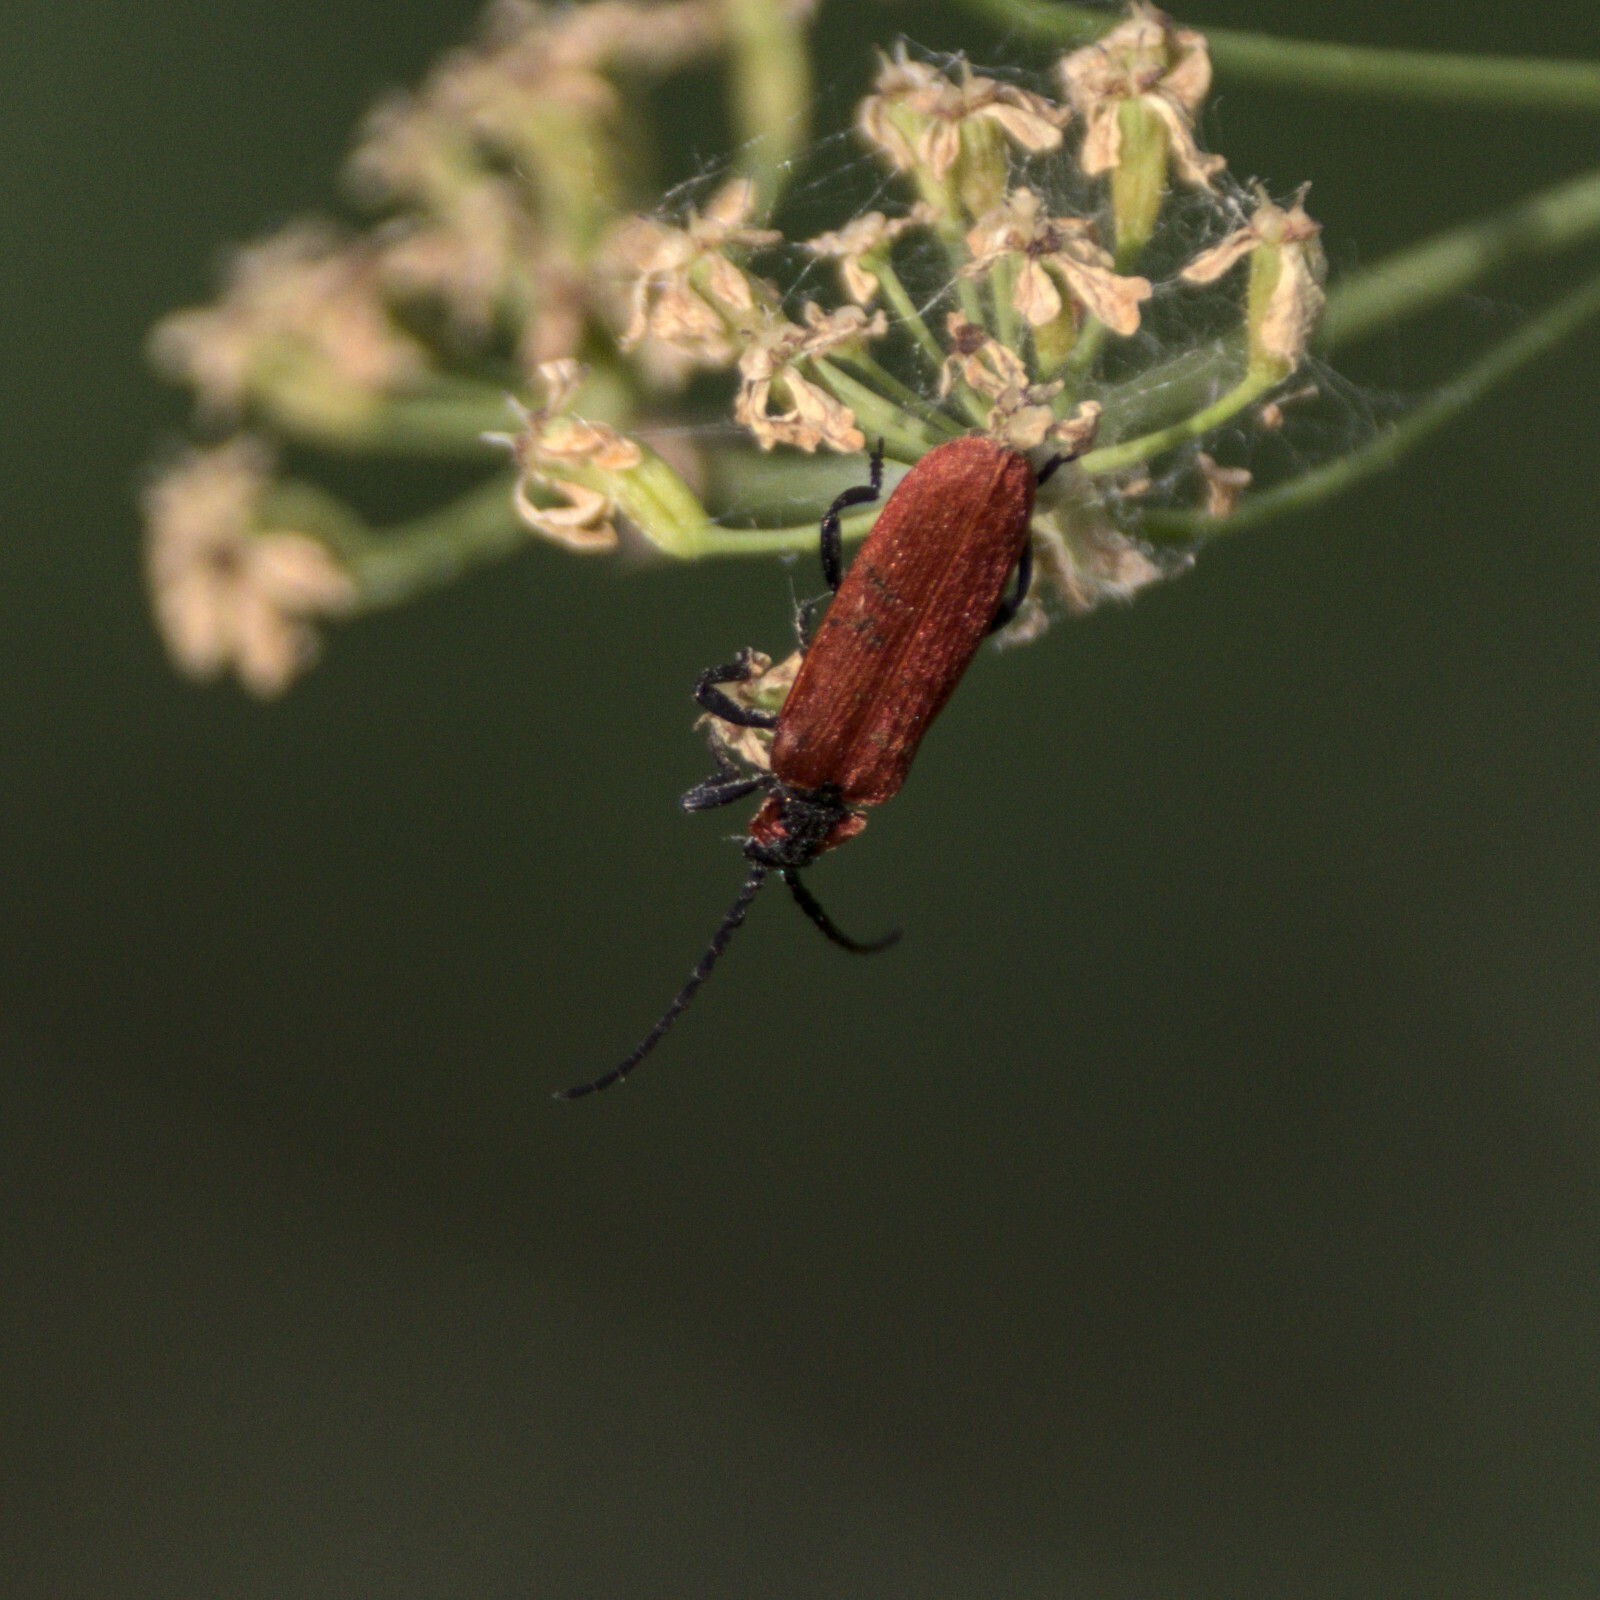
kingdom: Animalia
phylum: Arthropoda
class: Insecta
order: Coleoptera
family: Lycidae
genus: Lygistopterus
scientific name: Lygistopterus sanguineus
